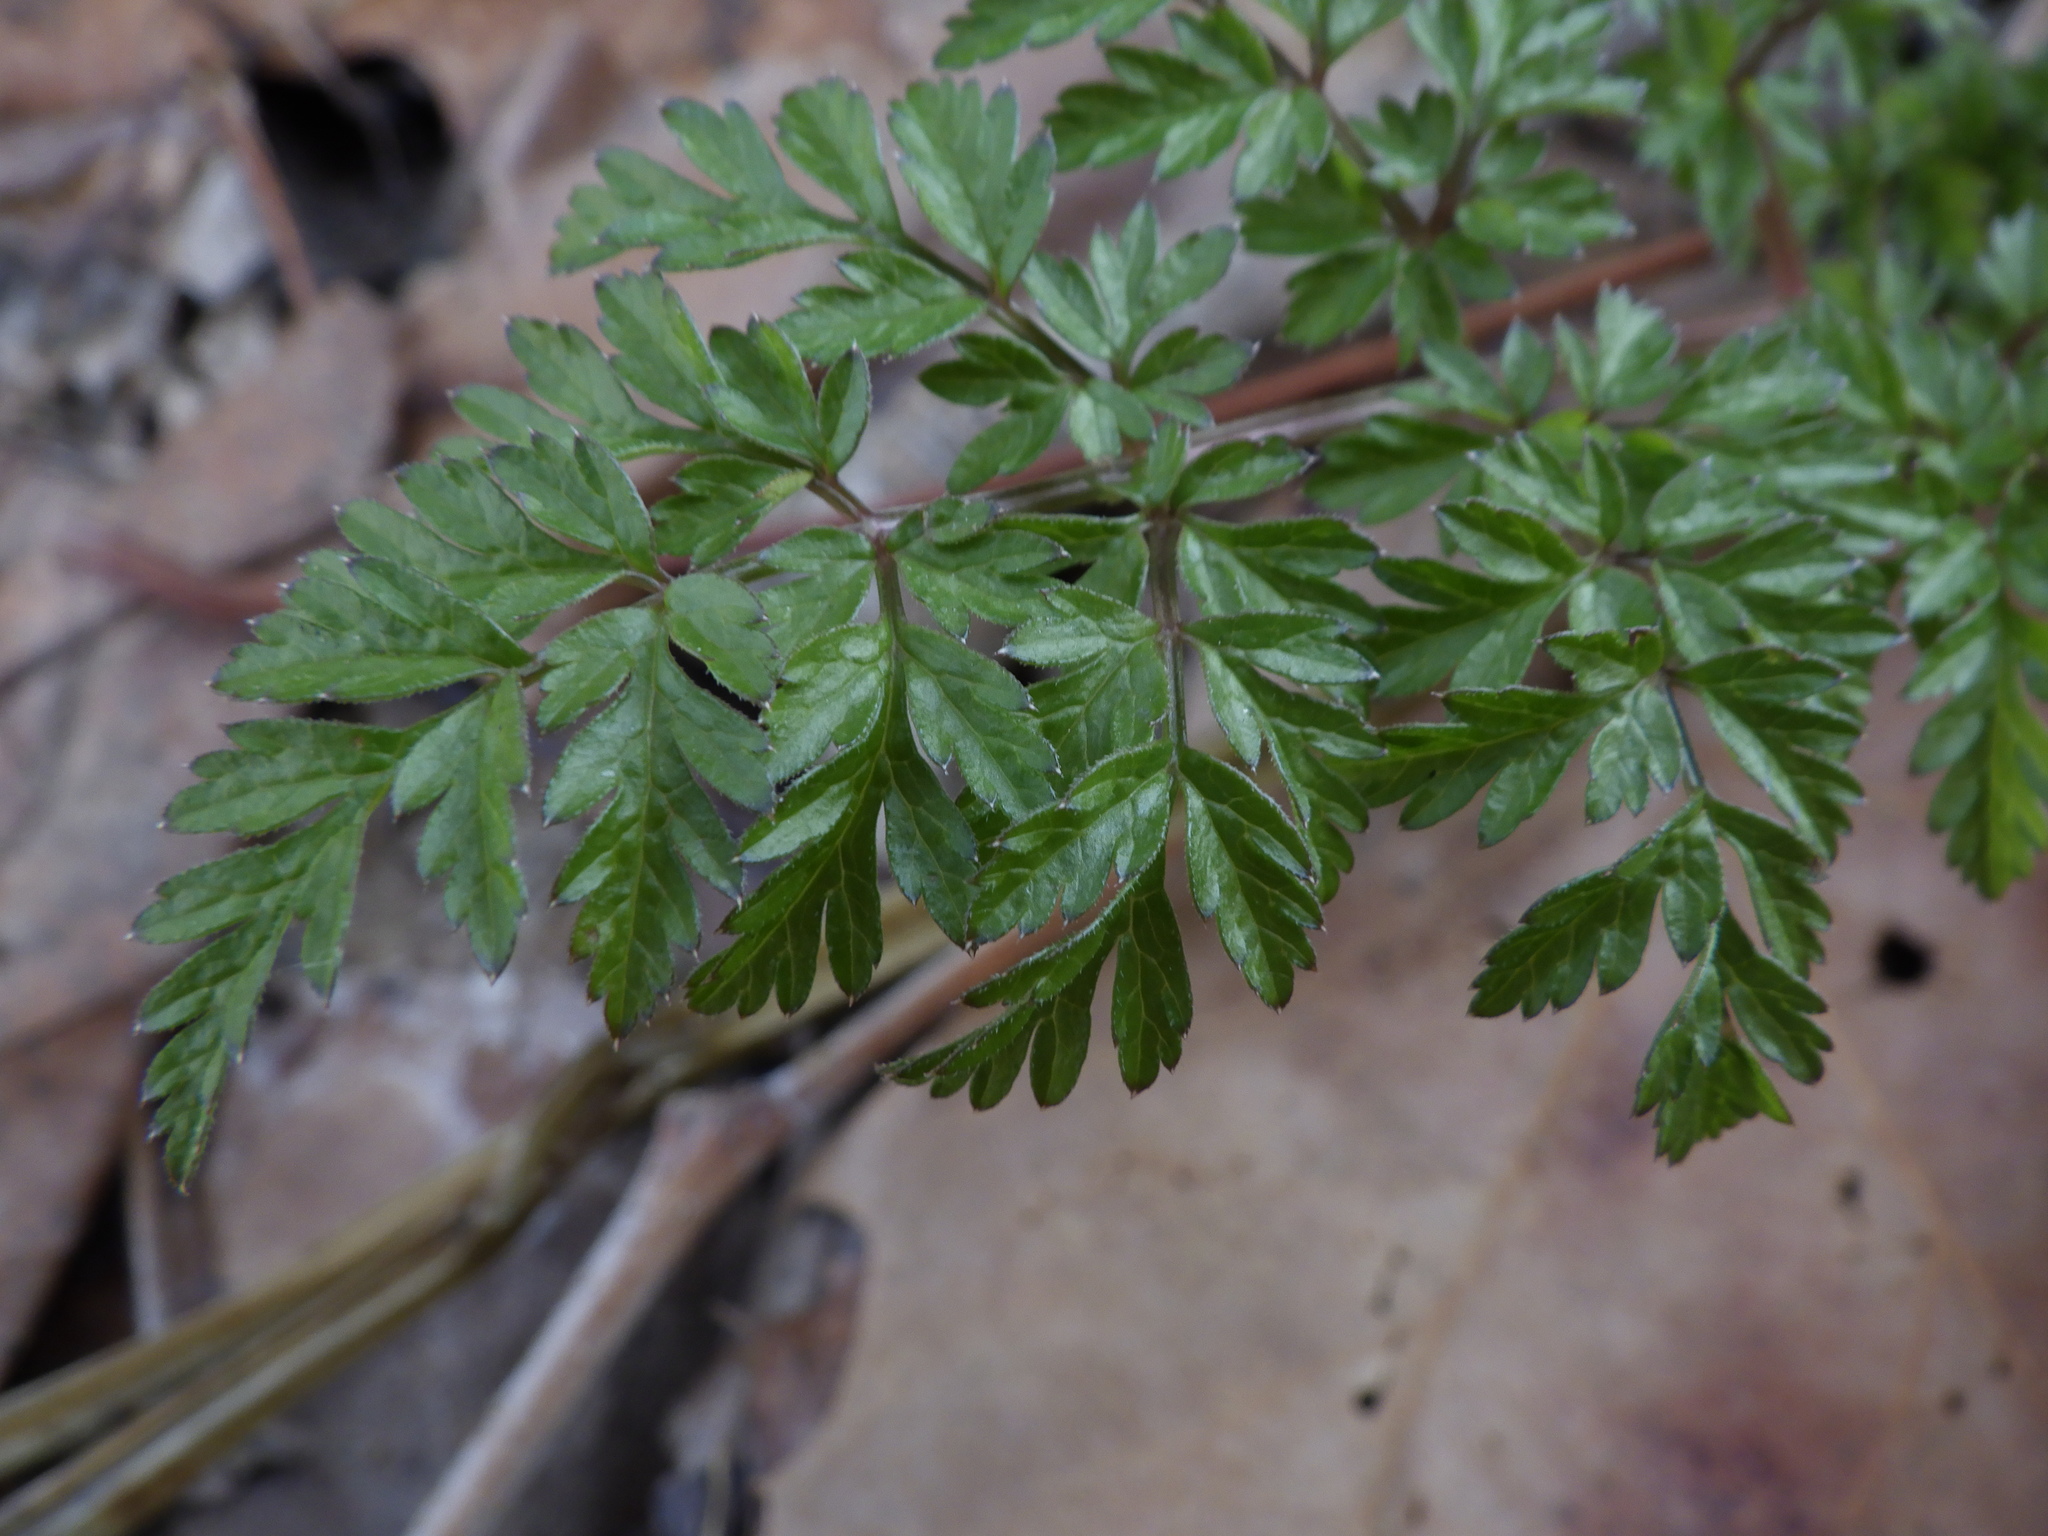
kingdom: Plantae
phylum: Tracheophyta
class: Magnoliopsida
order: Apiales
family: Apiaceae
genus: Anthriscus
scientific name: Anthriscus sylvestris
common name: Cow parsley
